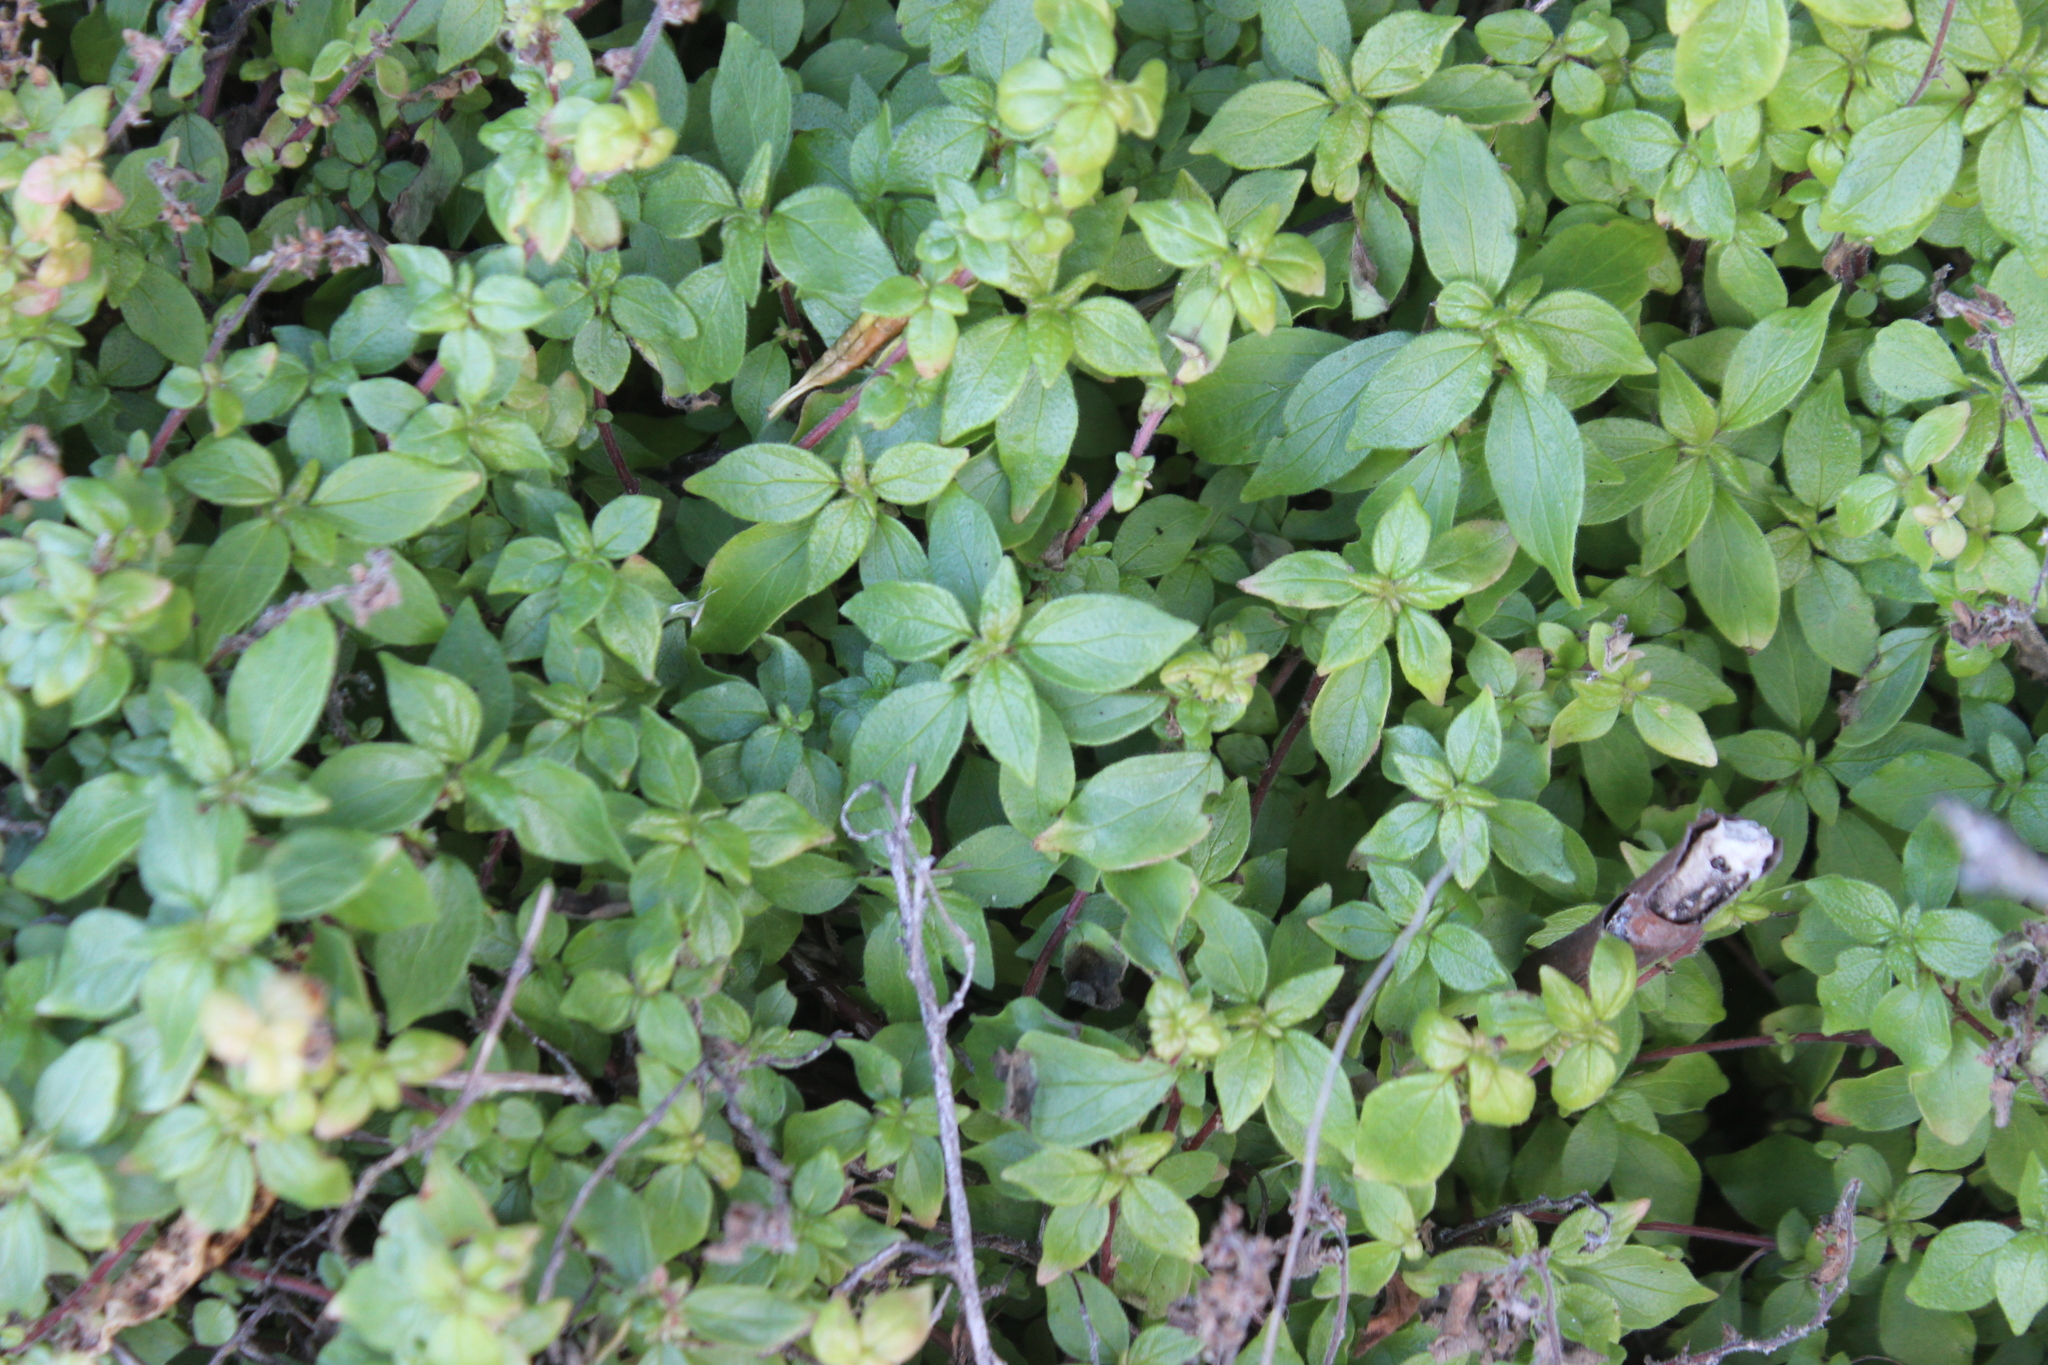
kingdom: Plantae
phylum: Tracheophyta
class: Magnoliopsida
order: Rosales
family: Urticaceae
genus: Parietaria
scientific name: Parietaria judaica
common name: Pellitory-of-the-wall
